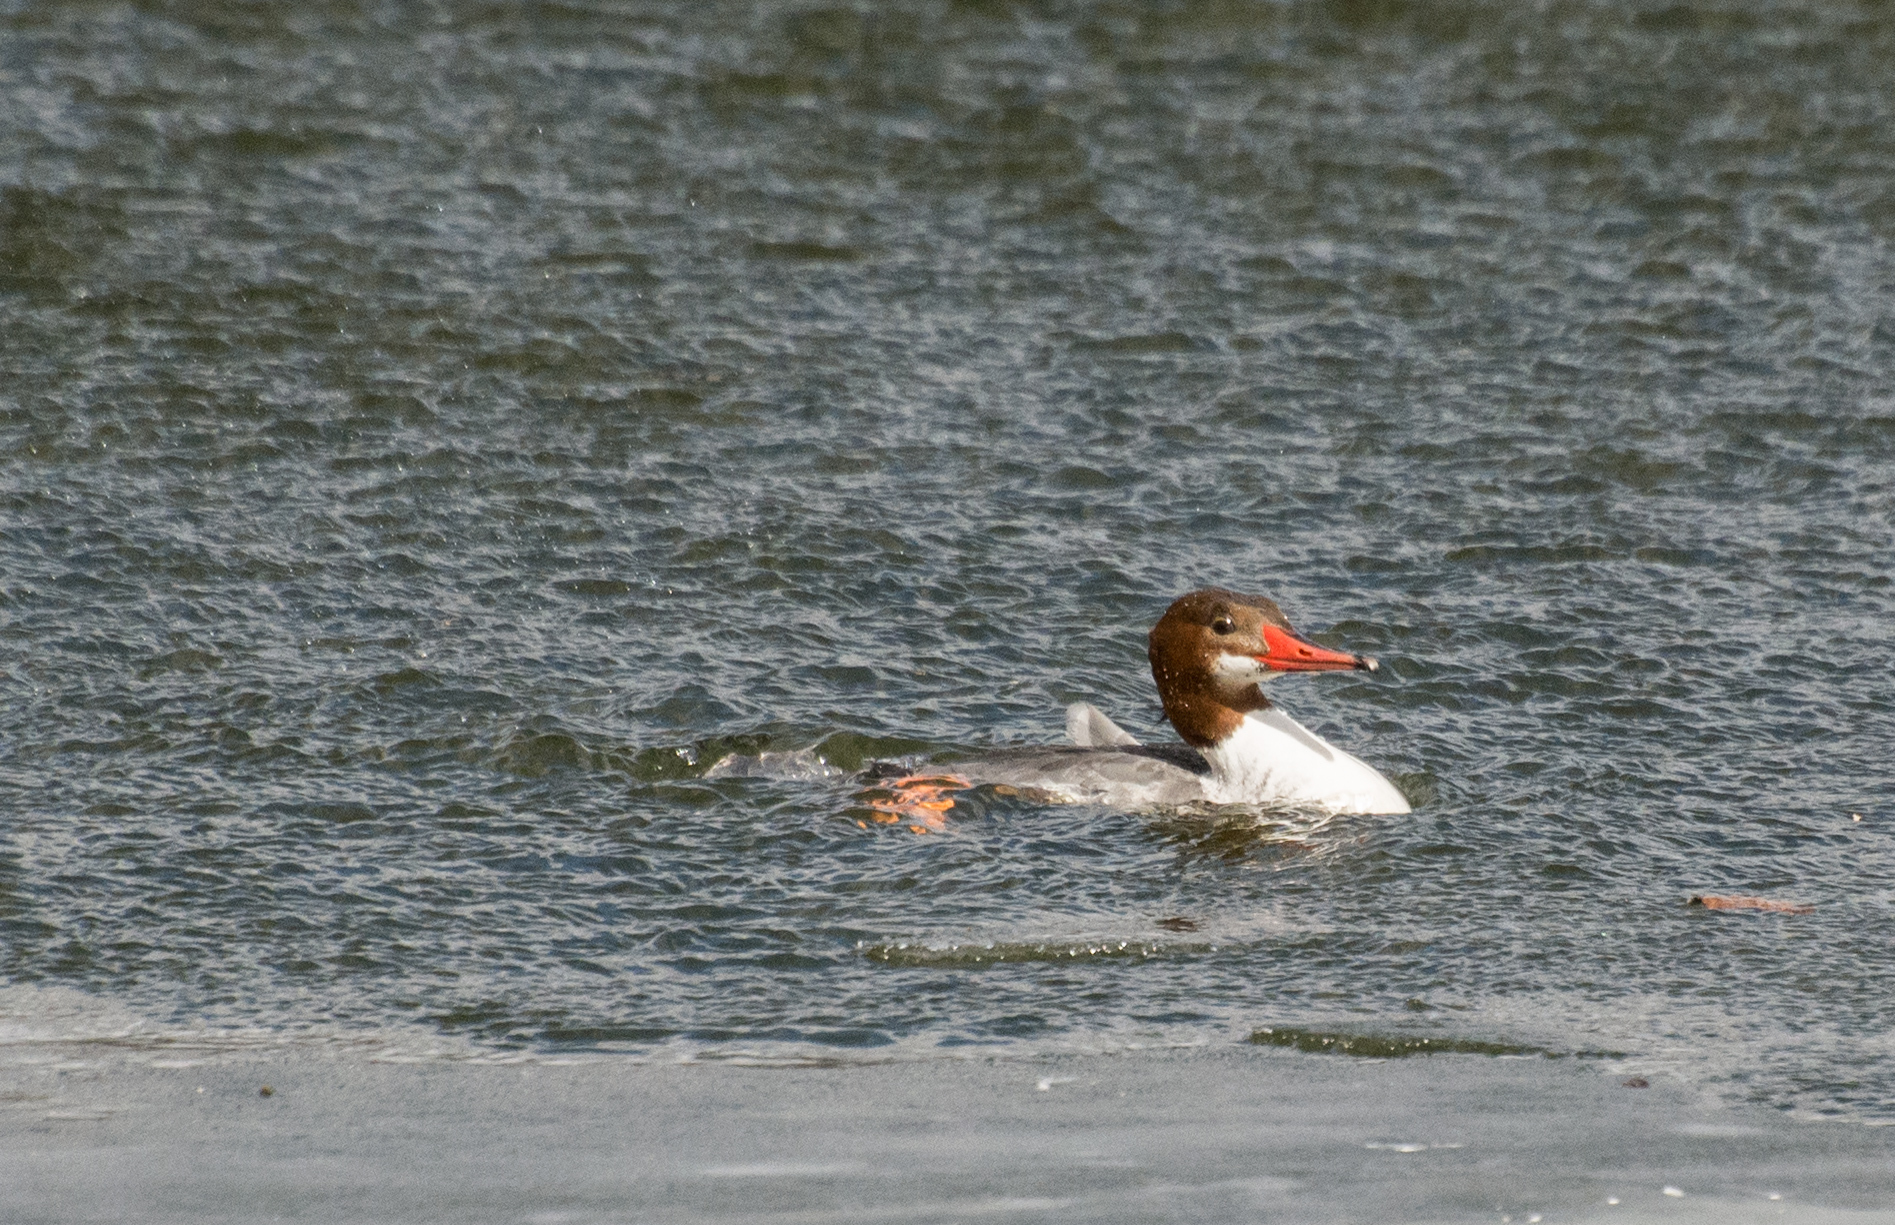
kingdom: Animalia
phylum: Chordata
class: Aves
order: Anseriformes
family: Anatidae
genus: Mergus
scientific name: Mergus merganser
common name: Common merganser
